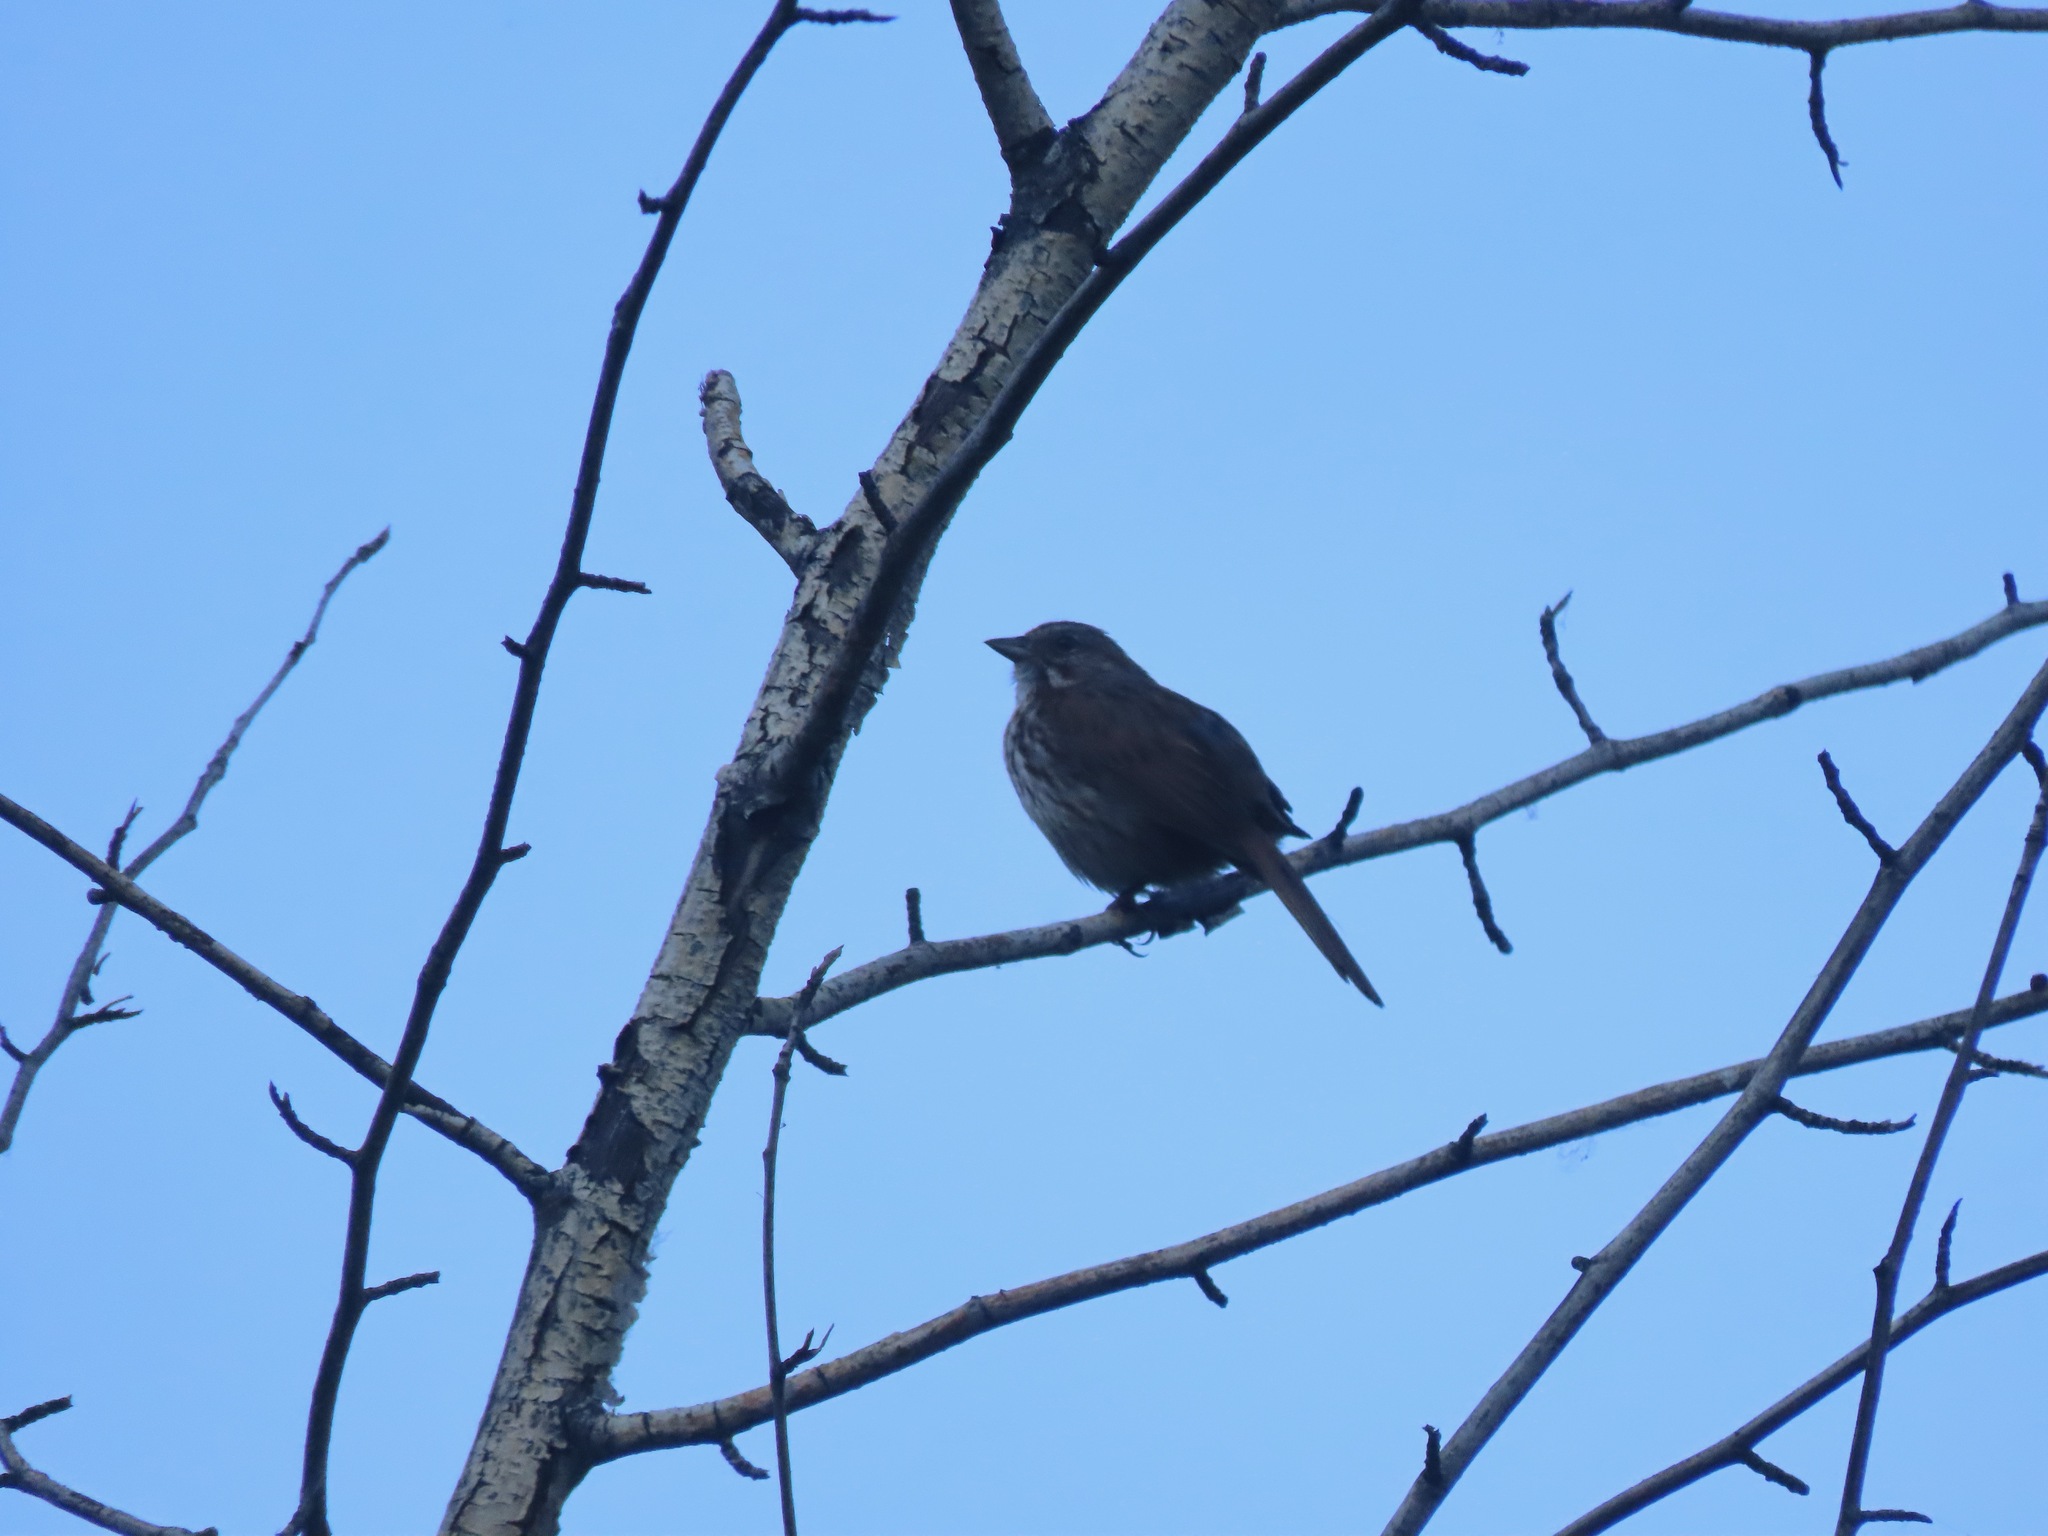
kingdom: Animalia
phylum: Chordata
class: Aves
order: Passeriformes
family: Passerellidae
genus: Melospiza
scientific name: Melospiza melodia
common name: Song sparrow
